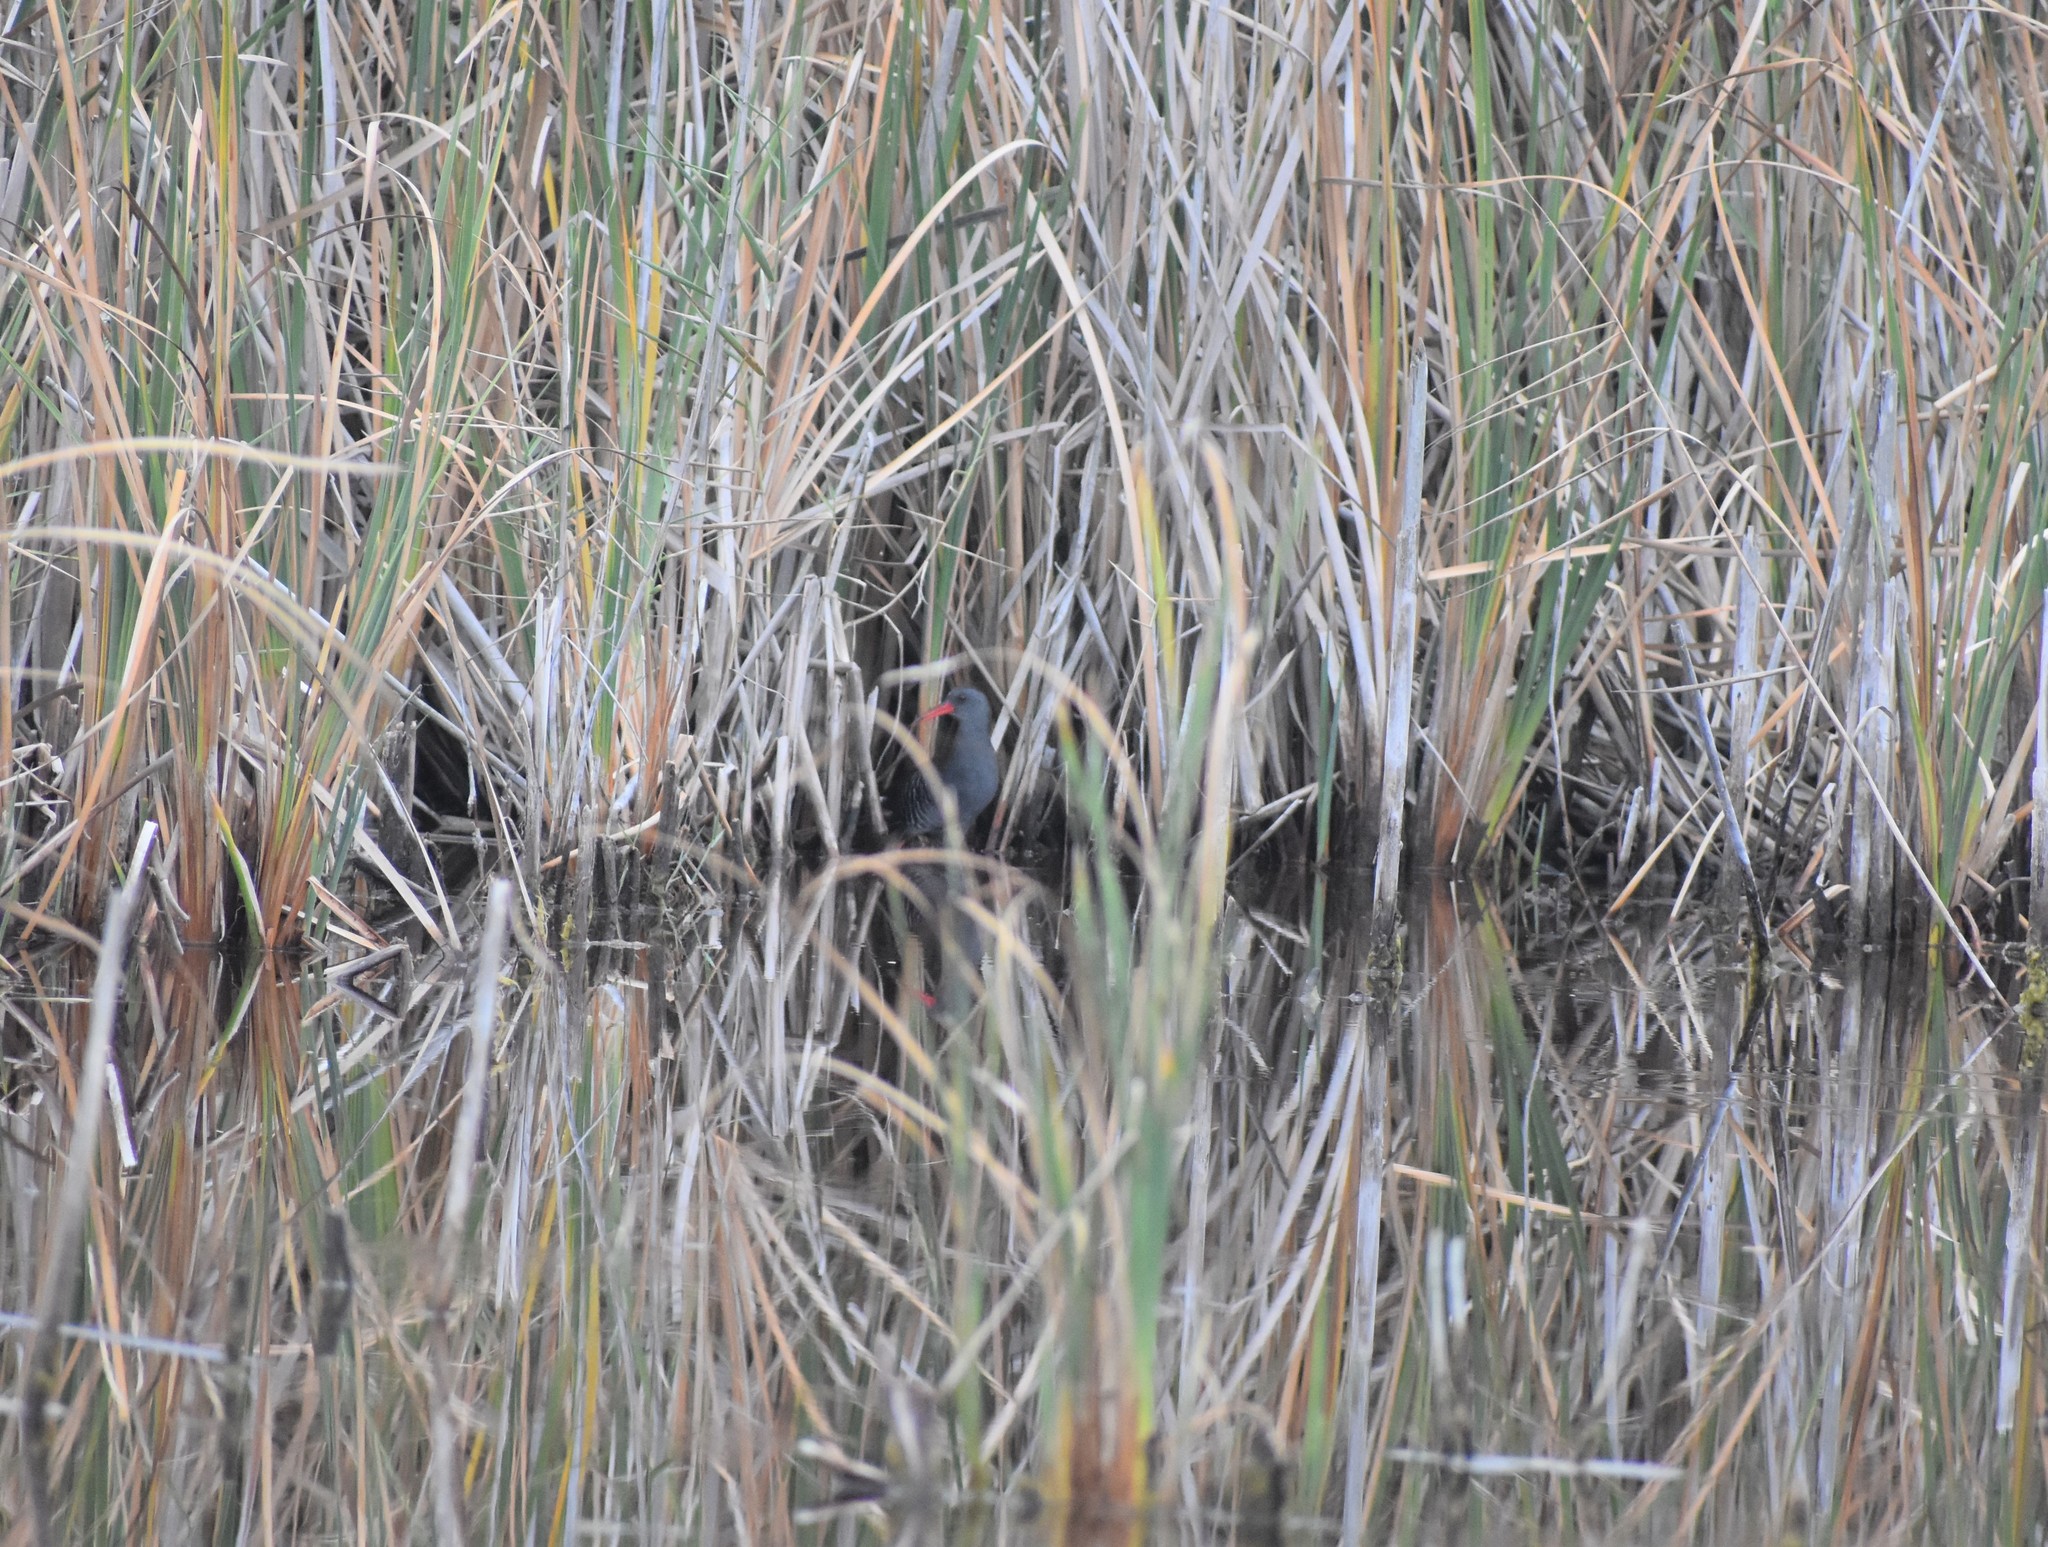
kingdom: Animalia
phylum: Chordata
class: Aves
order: Gruiformes
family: Rallidae
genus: Rallus
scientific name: Rallus caerulescens
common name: African rail
